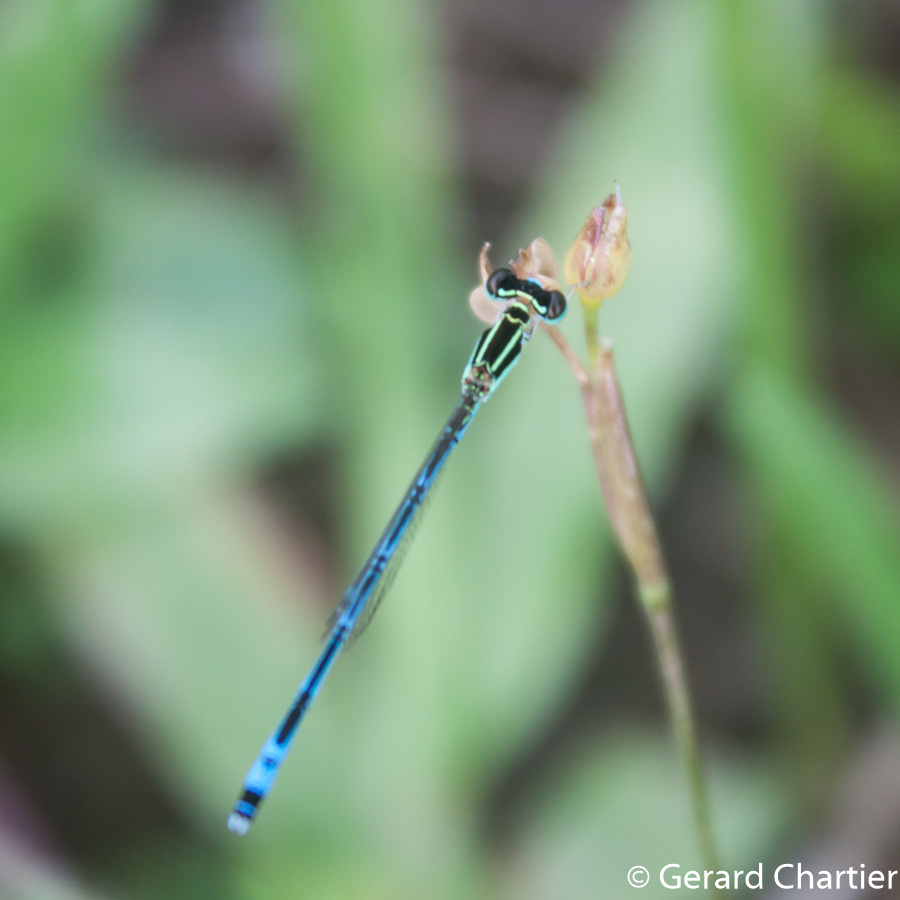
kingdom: Animalia
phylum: Arthropoda
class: Insecta
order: Odonata
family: Coenagrionidae
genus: Agriocnemis
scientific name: Agriocnemis nana
